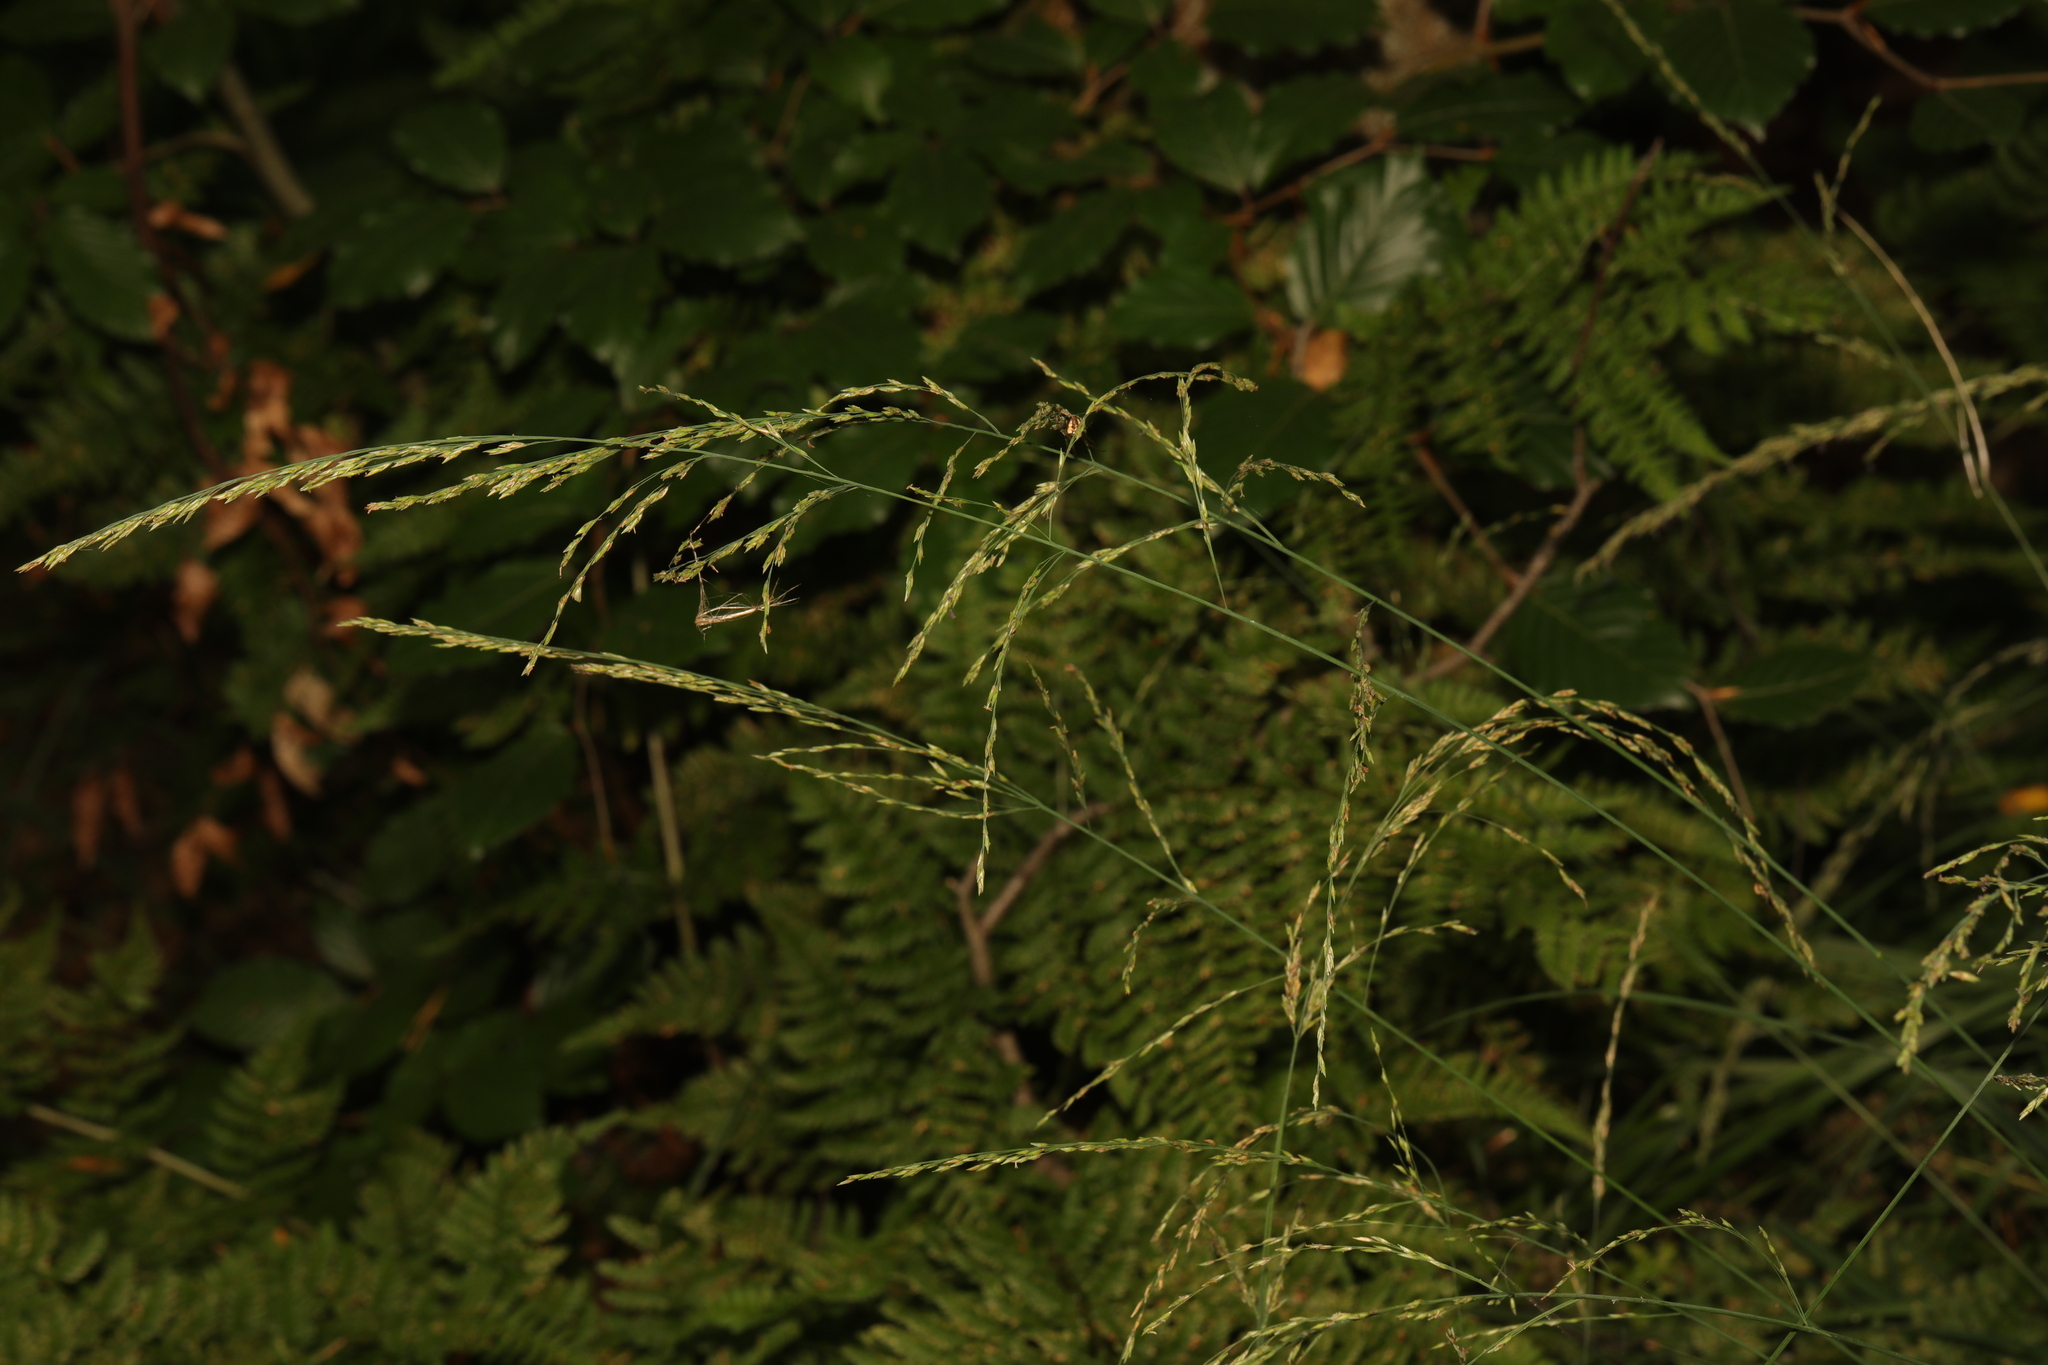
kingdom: Plantae
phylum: Tracheophyta
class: Liliopsida
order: Poales
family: Poaceae
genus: Milium
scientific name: Milium effusum
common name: Wood millet
